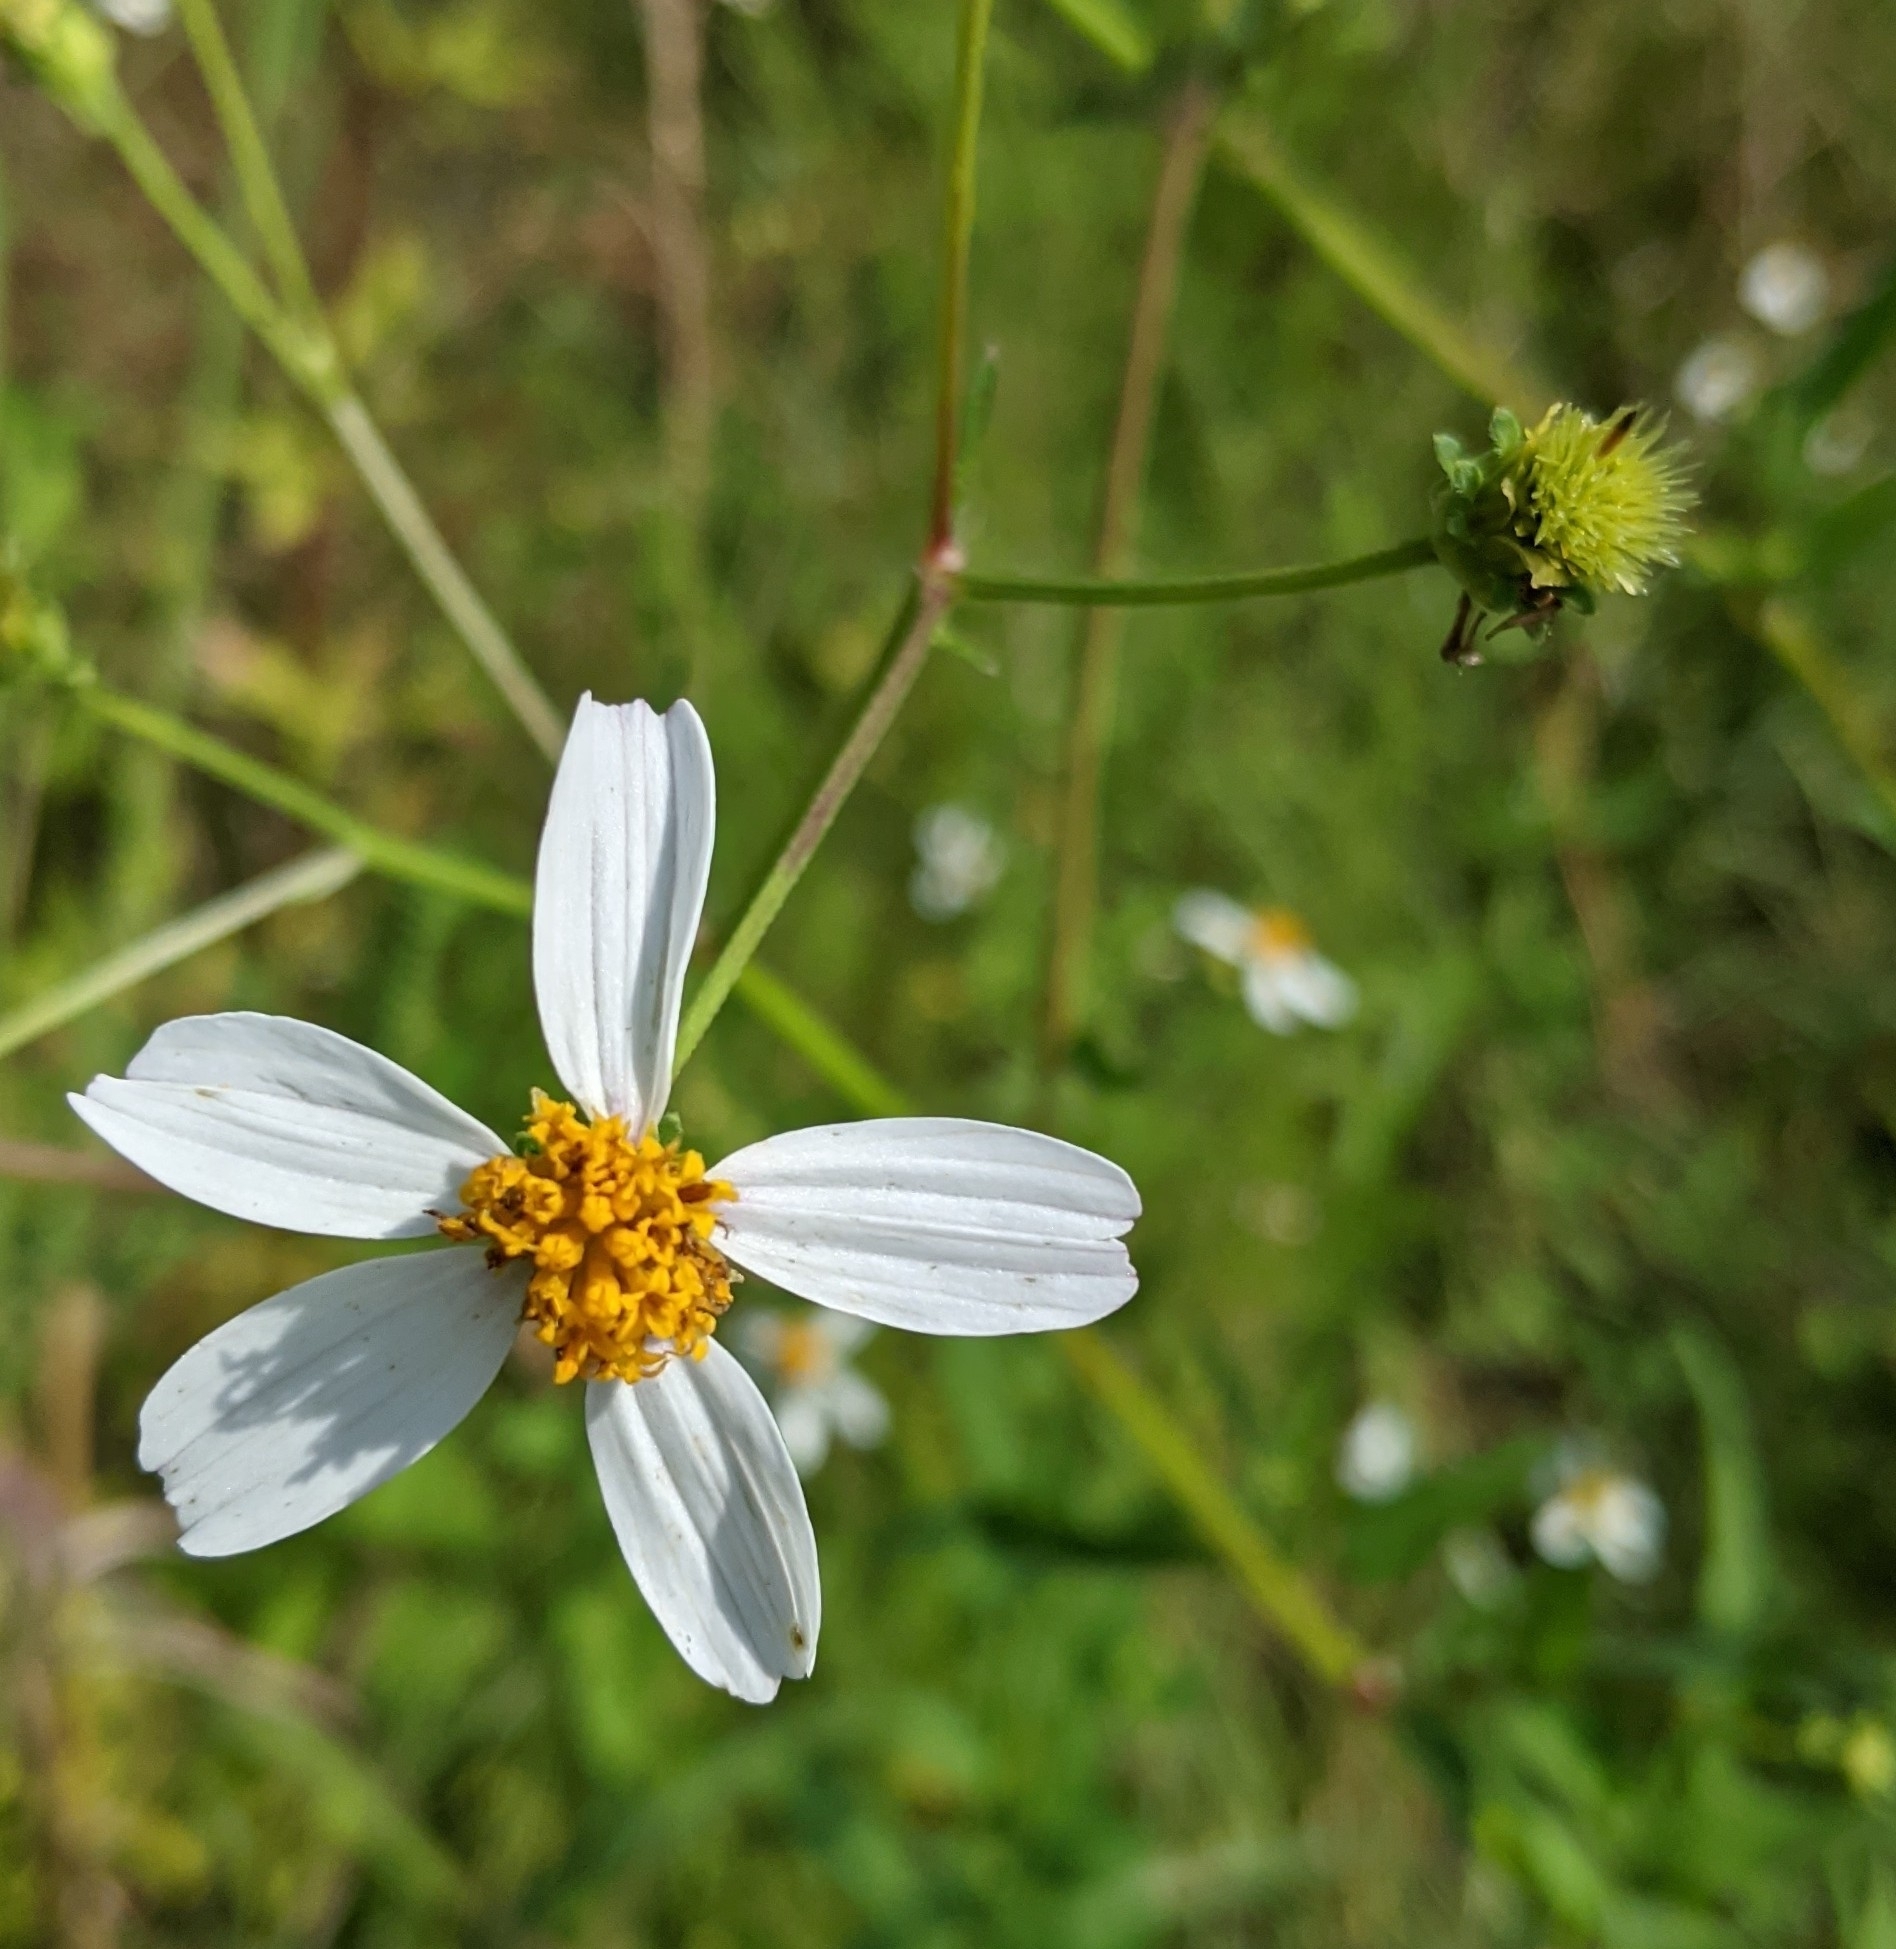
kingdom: Plantae
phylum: Tracheophyta
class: Magnoliopsida
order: Asterales
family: Asteraceae
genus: Bidens
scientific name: Bidens alba
